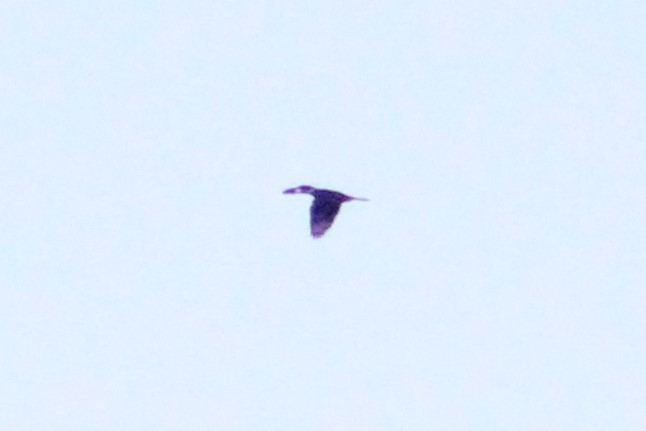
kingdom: Animalia
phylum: Chordata
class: Aves
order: Coraciiformes
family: Alcedinidae
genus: Megaceryle
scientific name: Megaceryle torquata
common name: Ringed kingfisher
